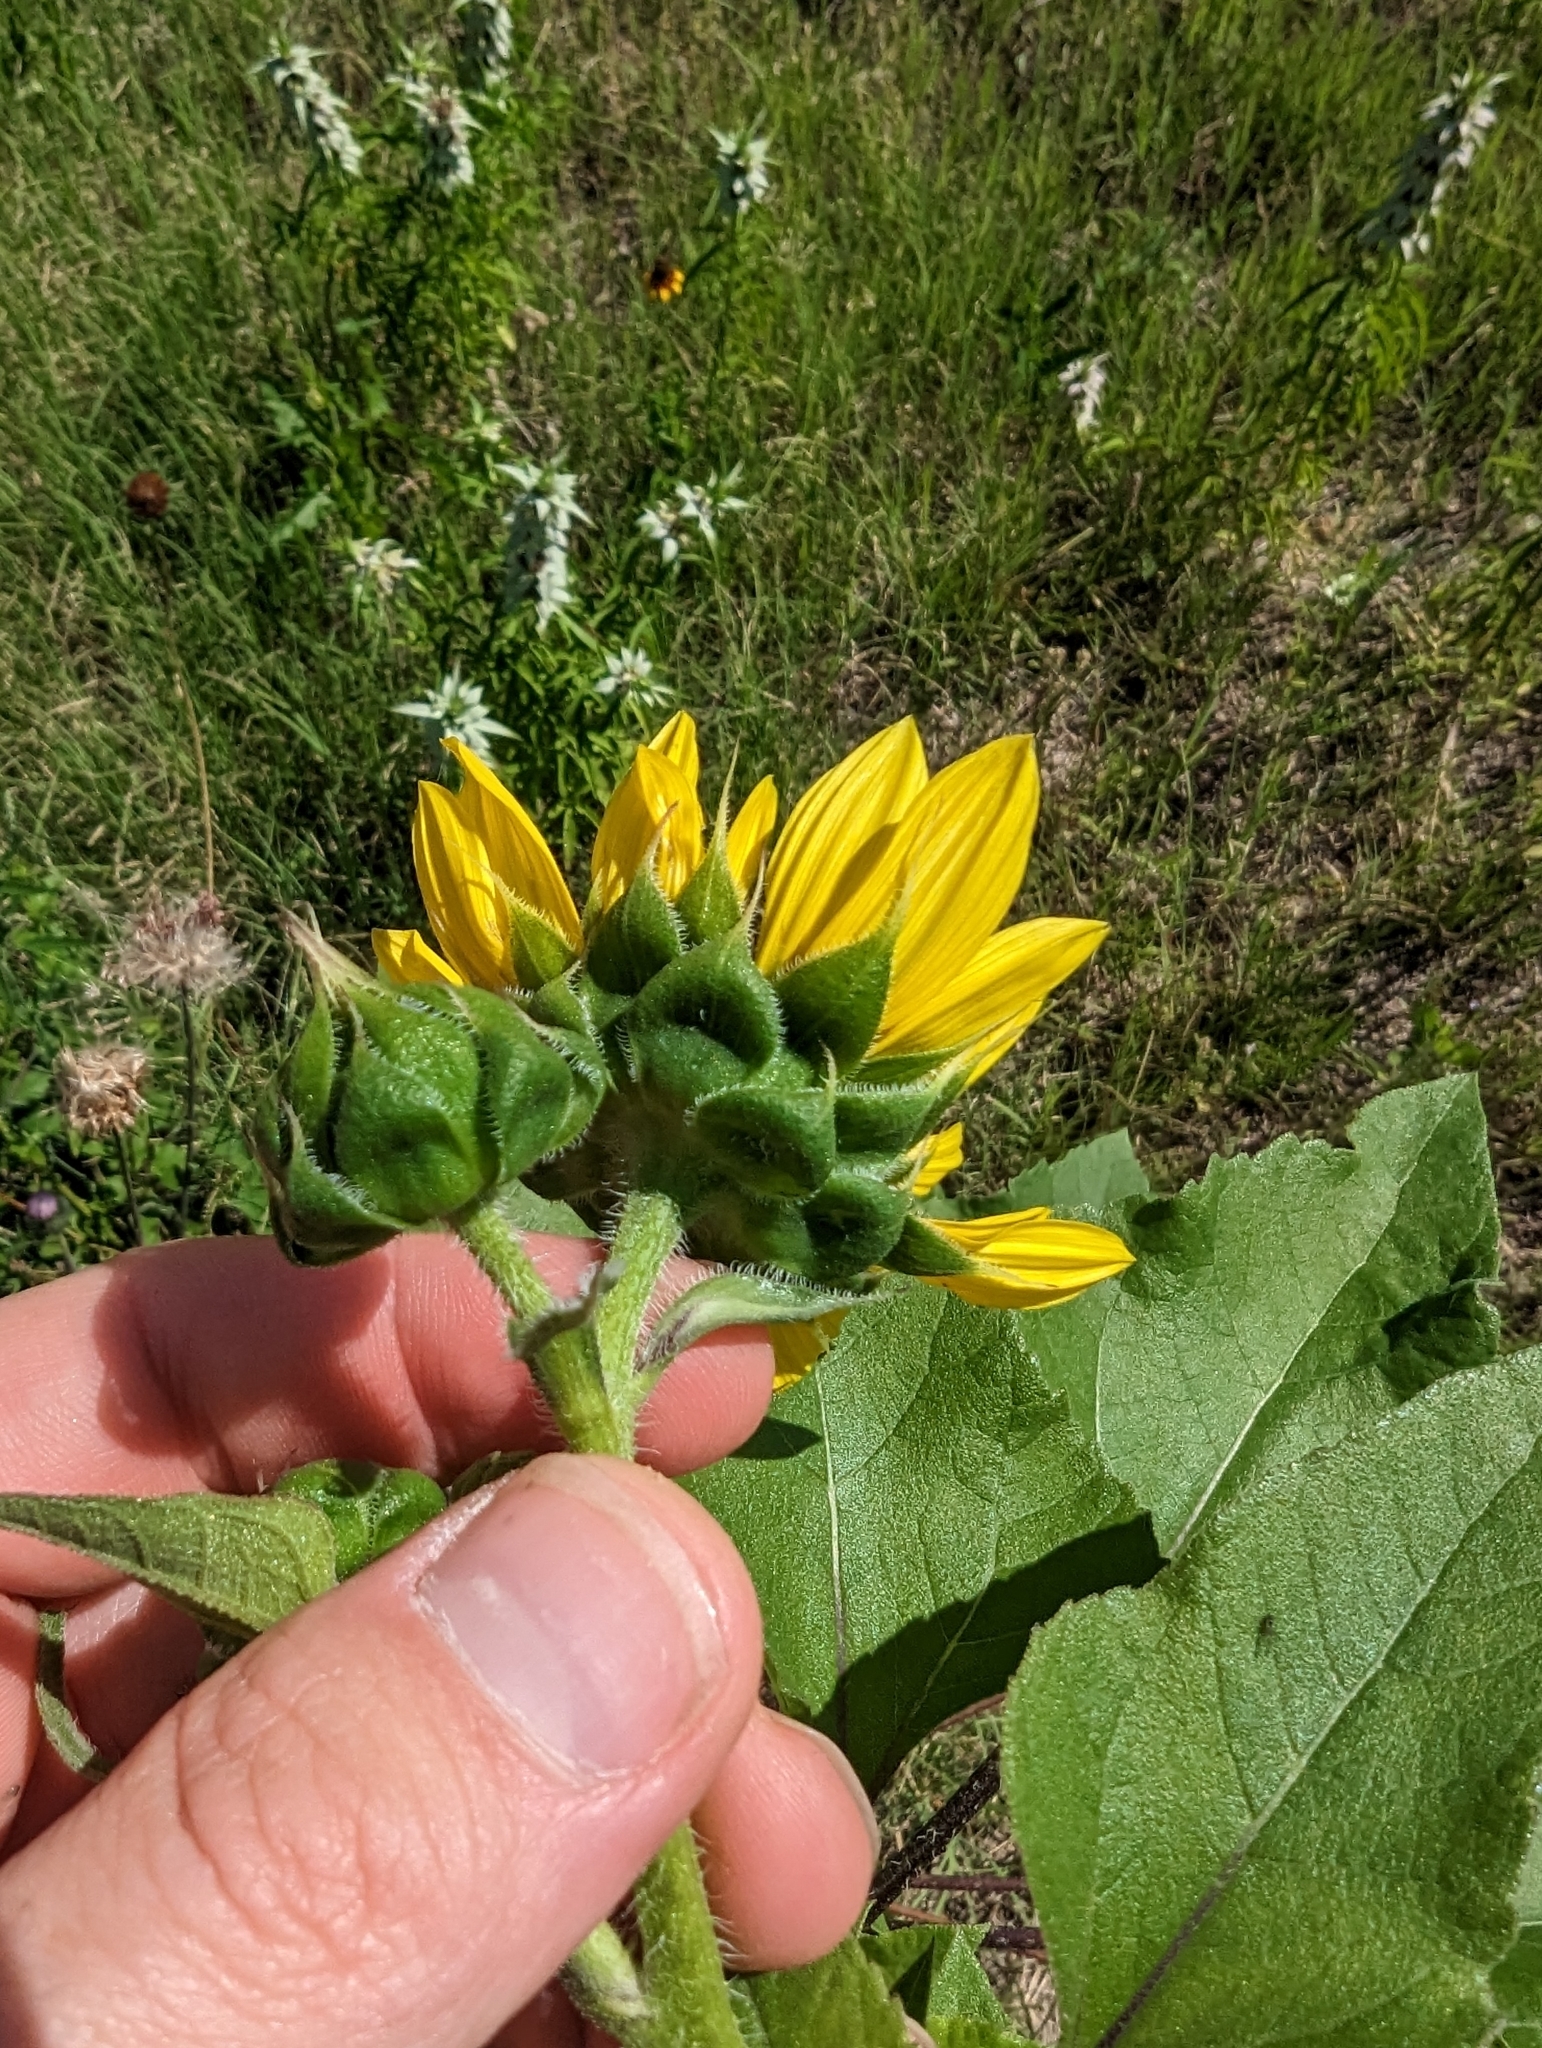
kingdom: Plantae
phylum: Tracheophyta
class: Magnoliopsida
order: Asterales
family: Asteraceae
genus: Helianthus
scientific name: Helianthus annuus
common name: Sunflower
